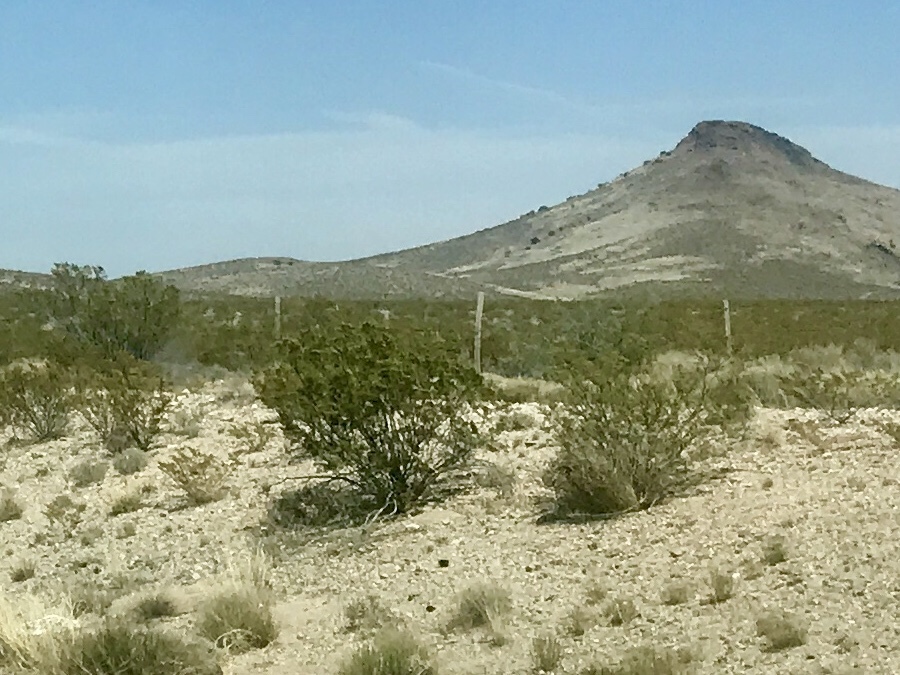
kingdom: Plantae
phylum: Tracheophyta
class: Magnoliopsida
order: Zygophyllales
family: Zygophyllaceae
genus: Larrea
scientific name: Larrea tridentata
